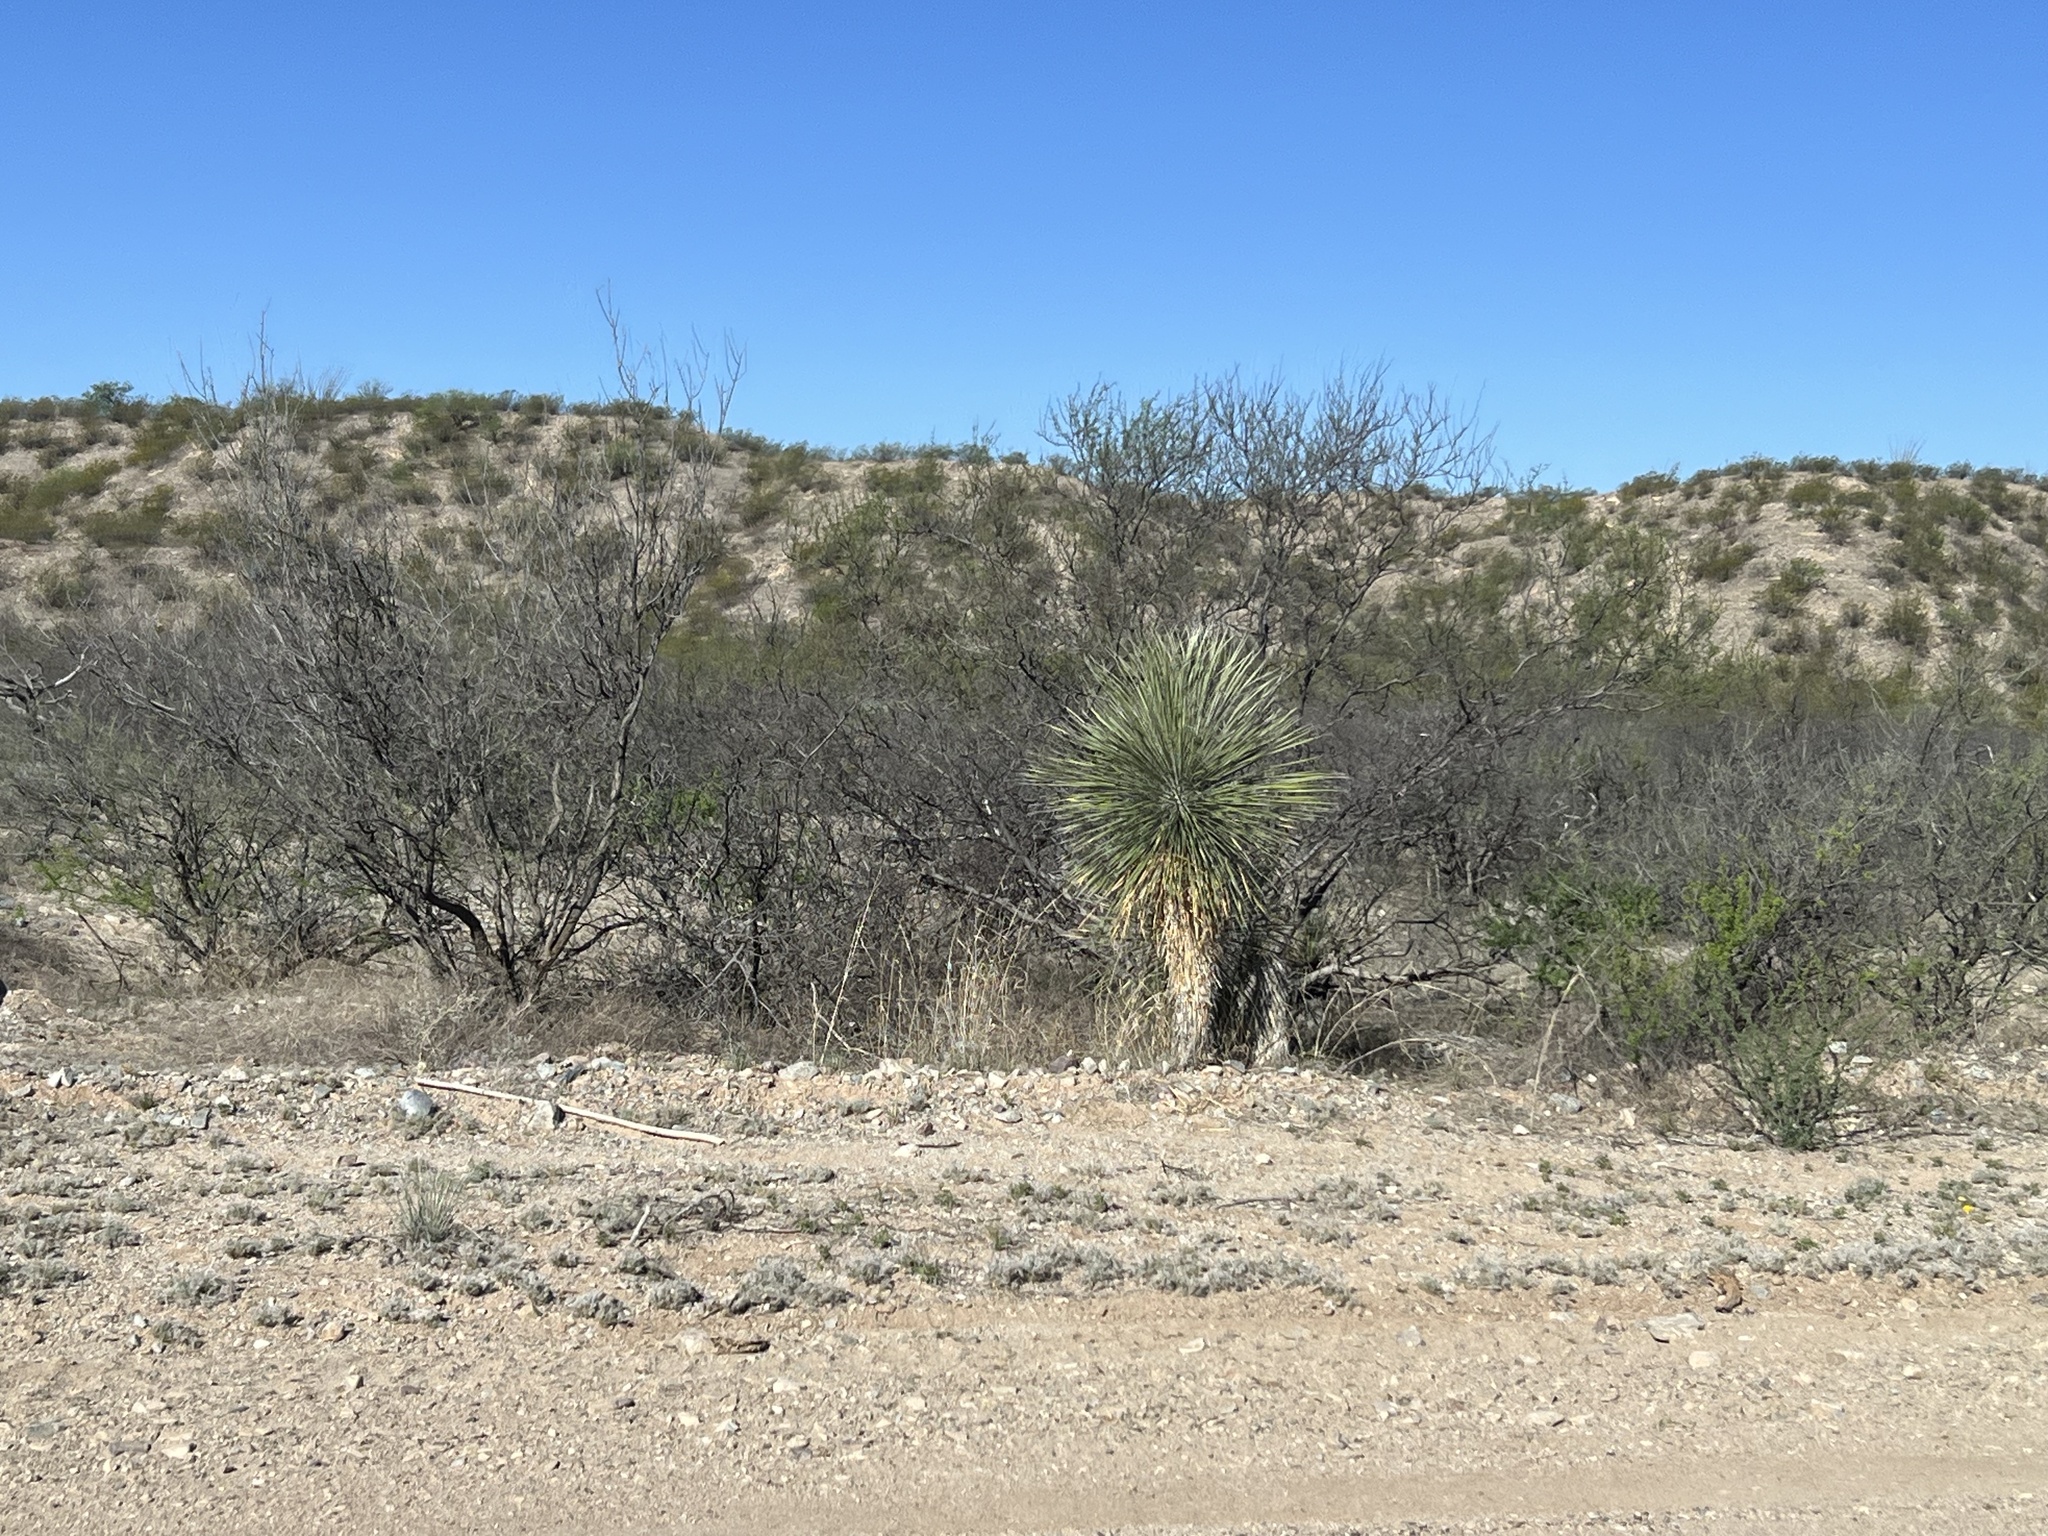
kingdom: Plantae
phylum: Tracheophyta
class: Liliopsida
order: Asparagales
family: Asparagaceae
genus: Yucca
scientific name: Yucca elata
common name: Palmella
